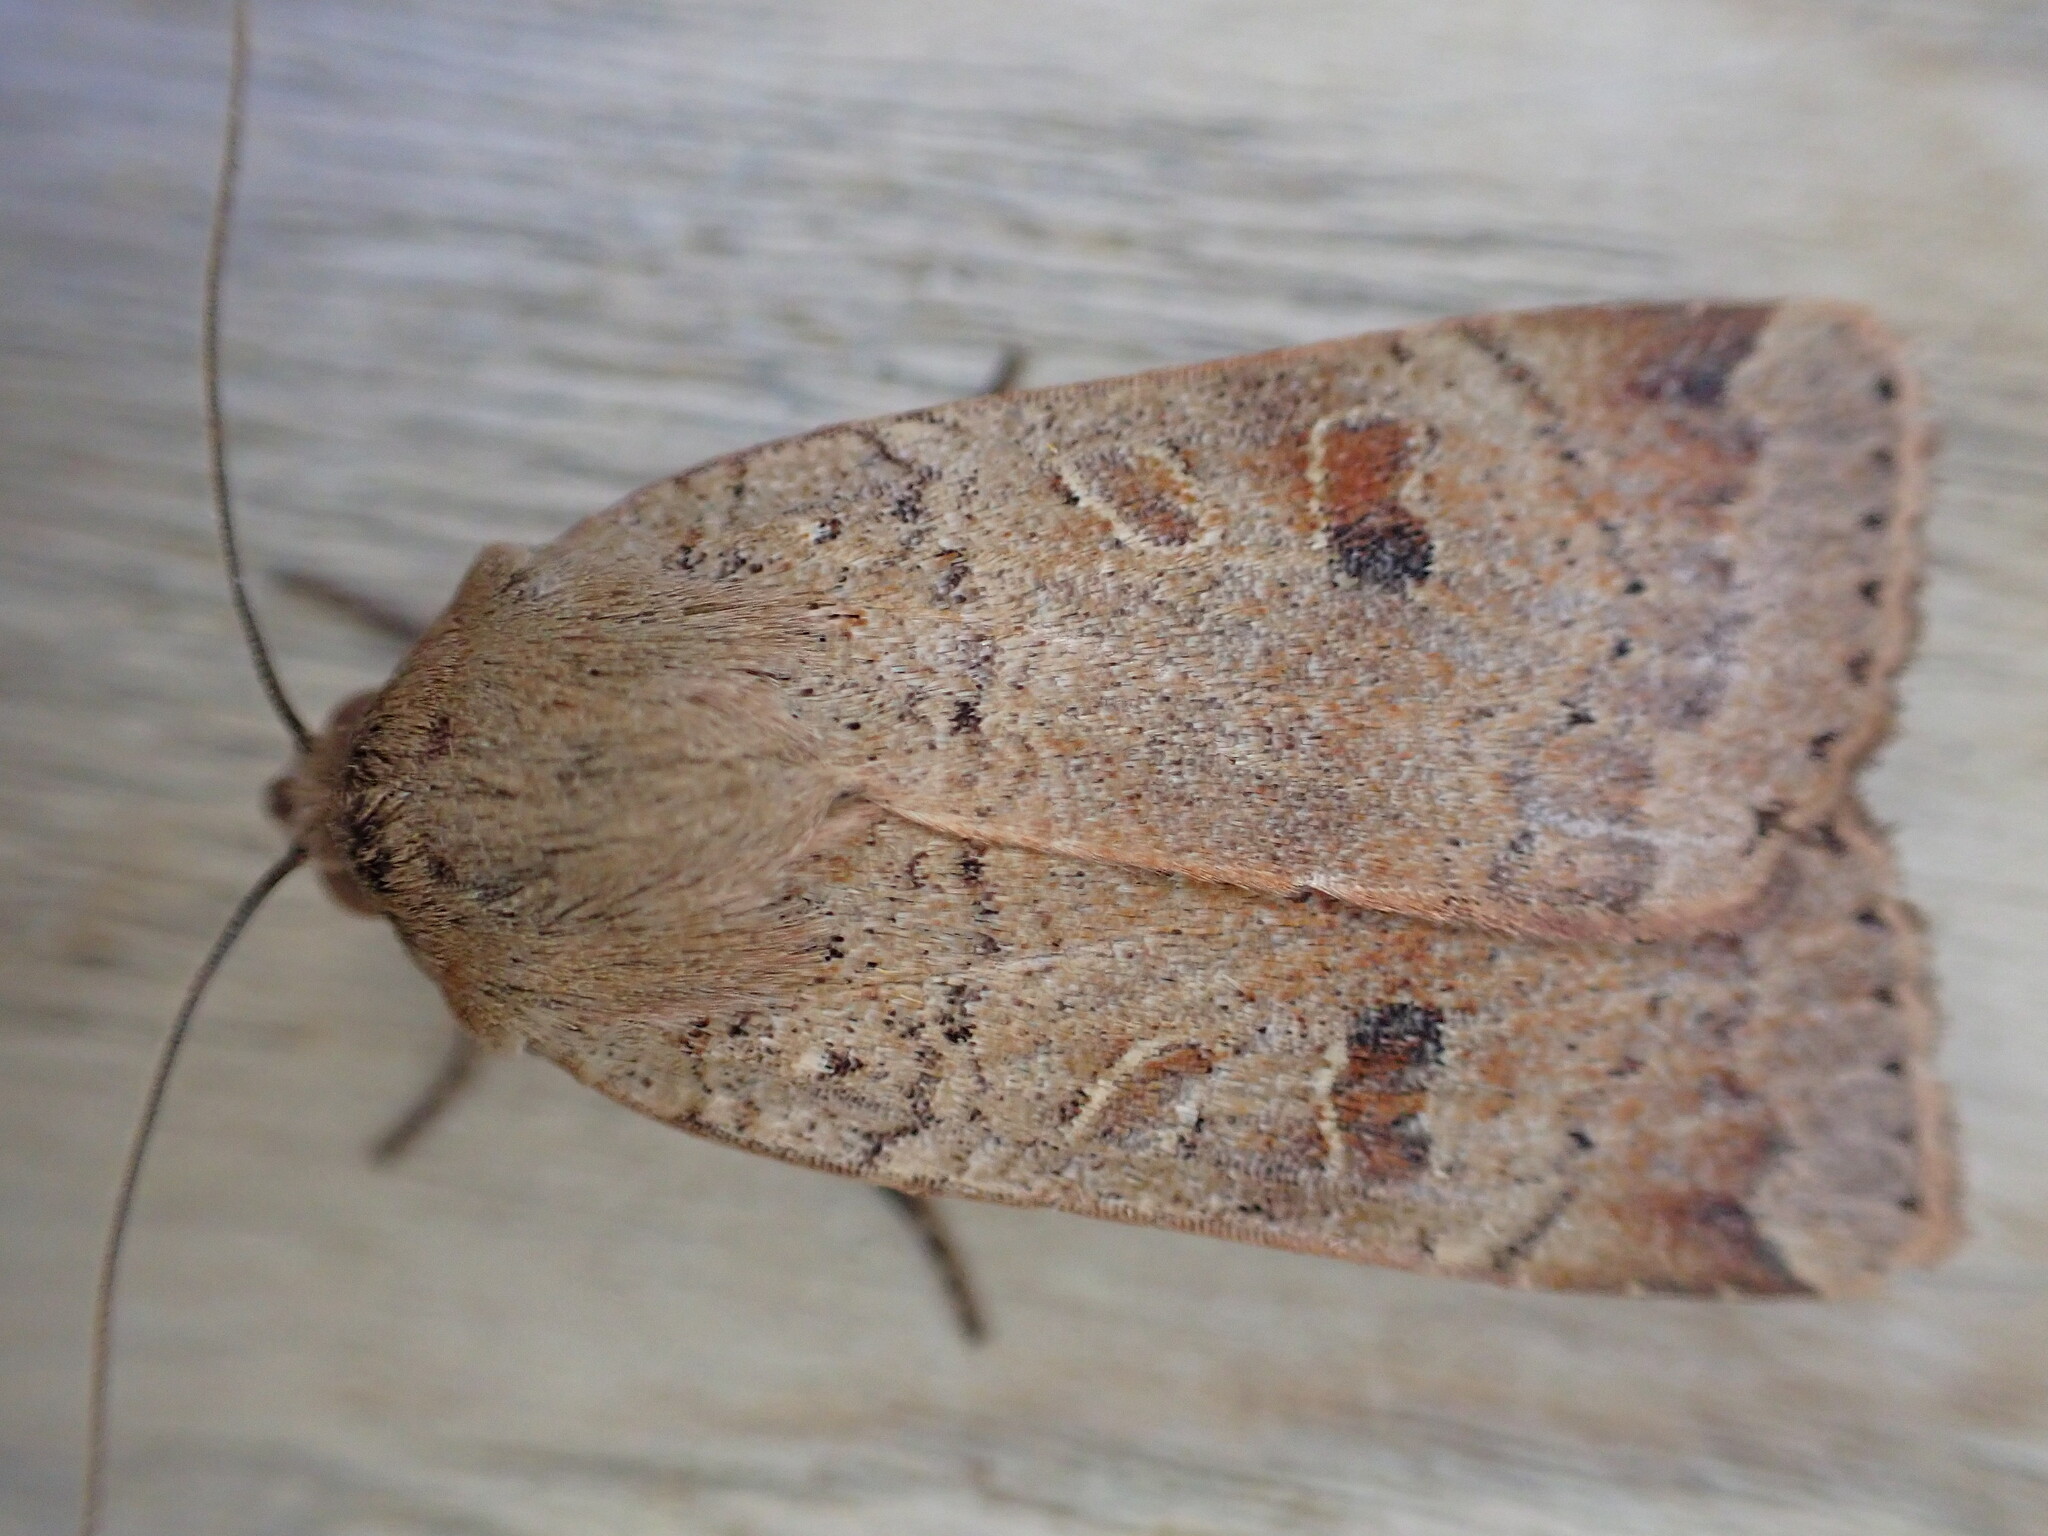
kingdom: Animalia
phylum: Arthropoda
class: Insecta
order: Lepidoptera
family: Noctuidae
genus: Noctua
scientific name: Noctua comes
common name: Lesser yellow underwing
